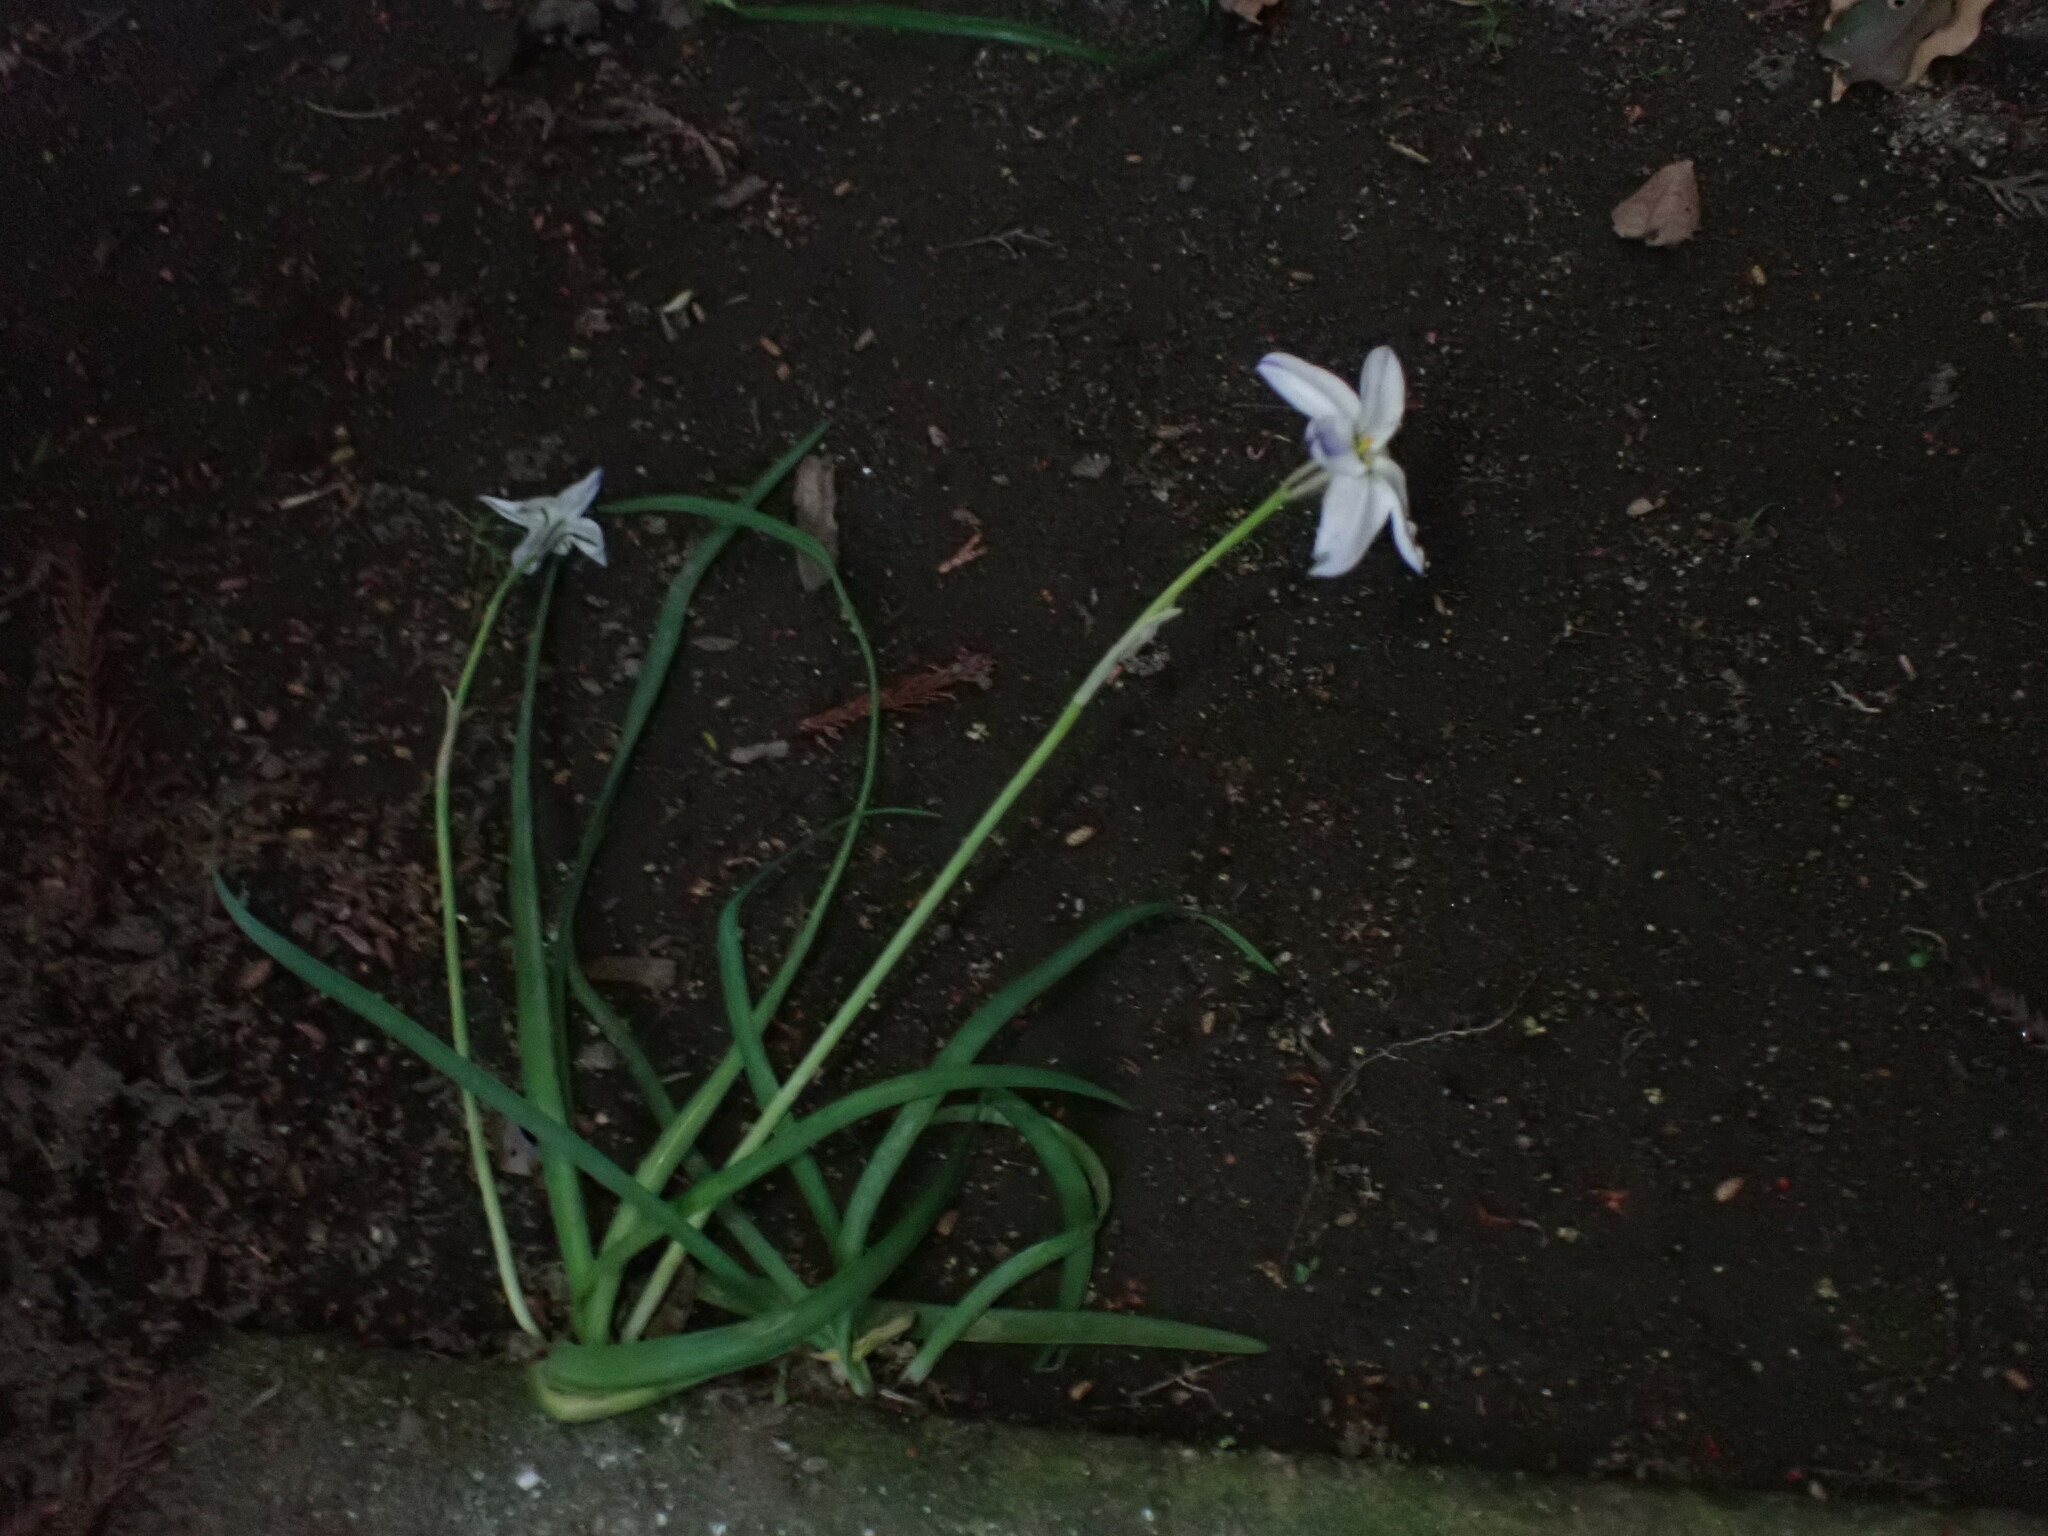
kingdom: Plantae
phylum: Tracheophyta
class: Liliopsida
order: Asparagales
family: Amaryllidaceae
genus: Ipheion
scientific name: Ipheion uniflorum
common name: Spring starflower
